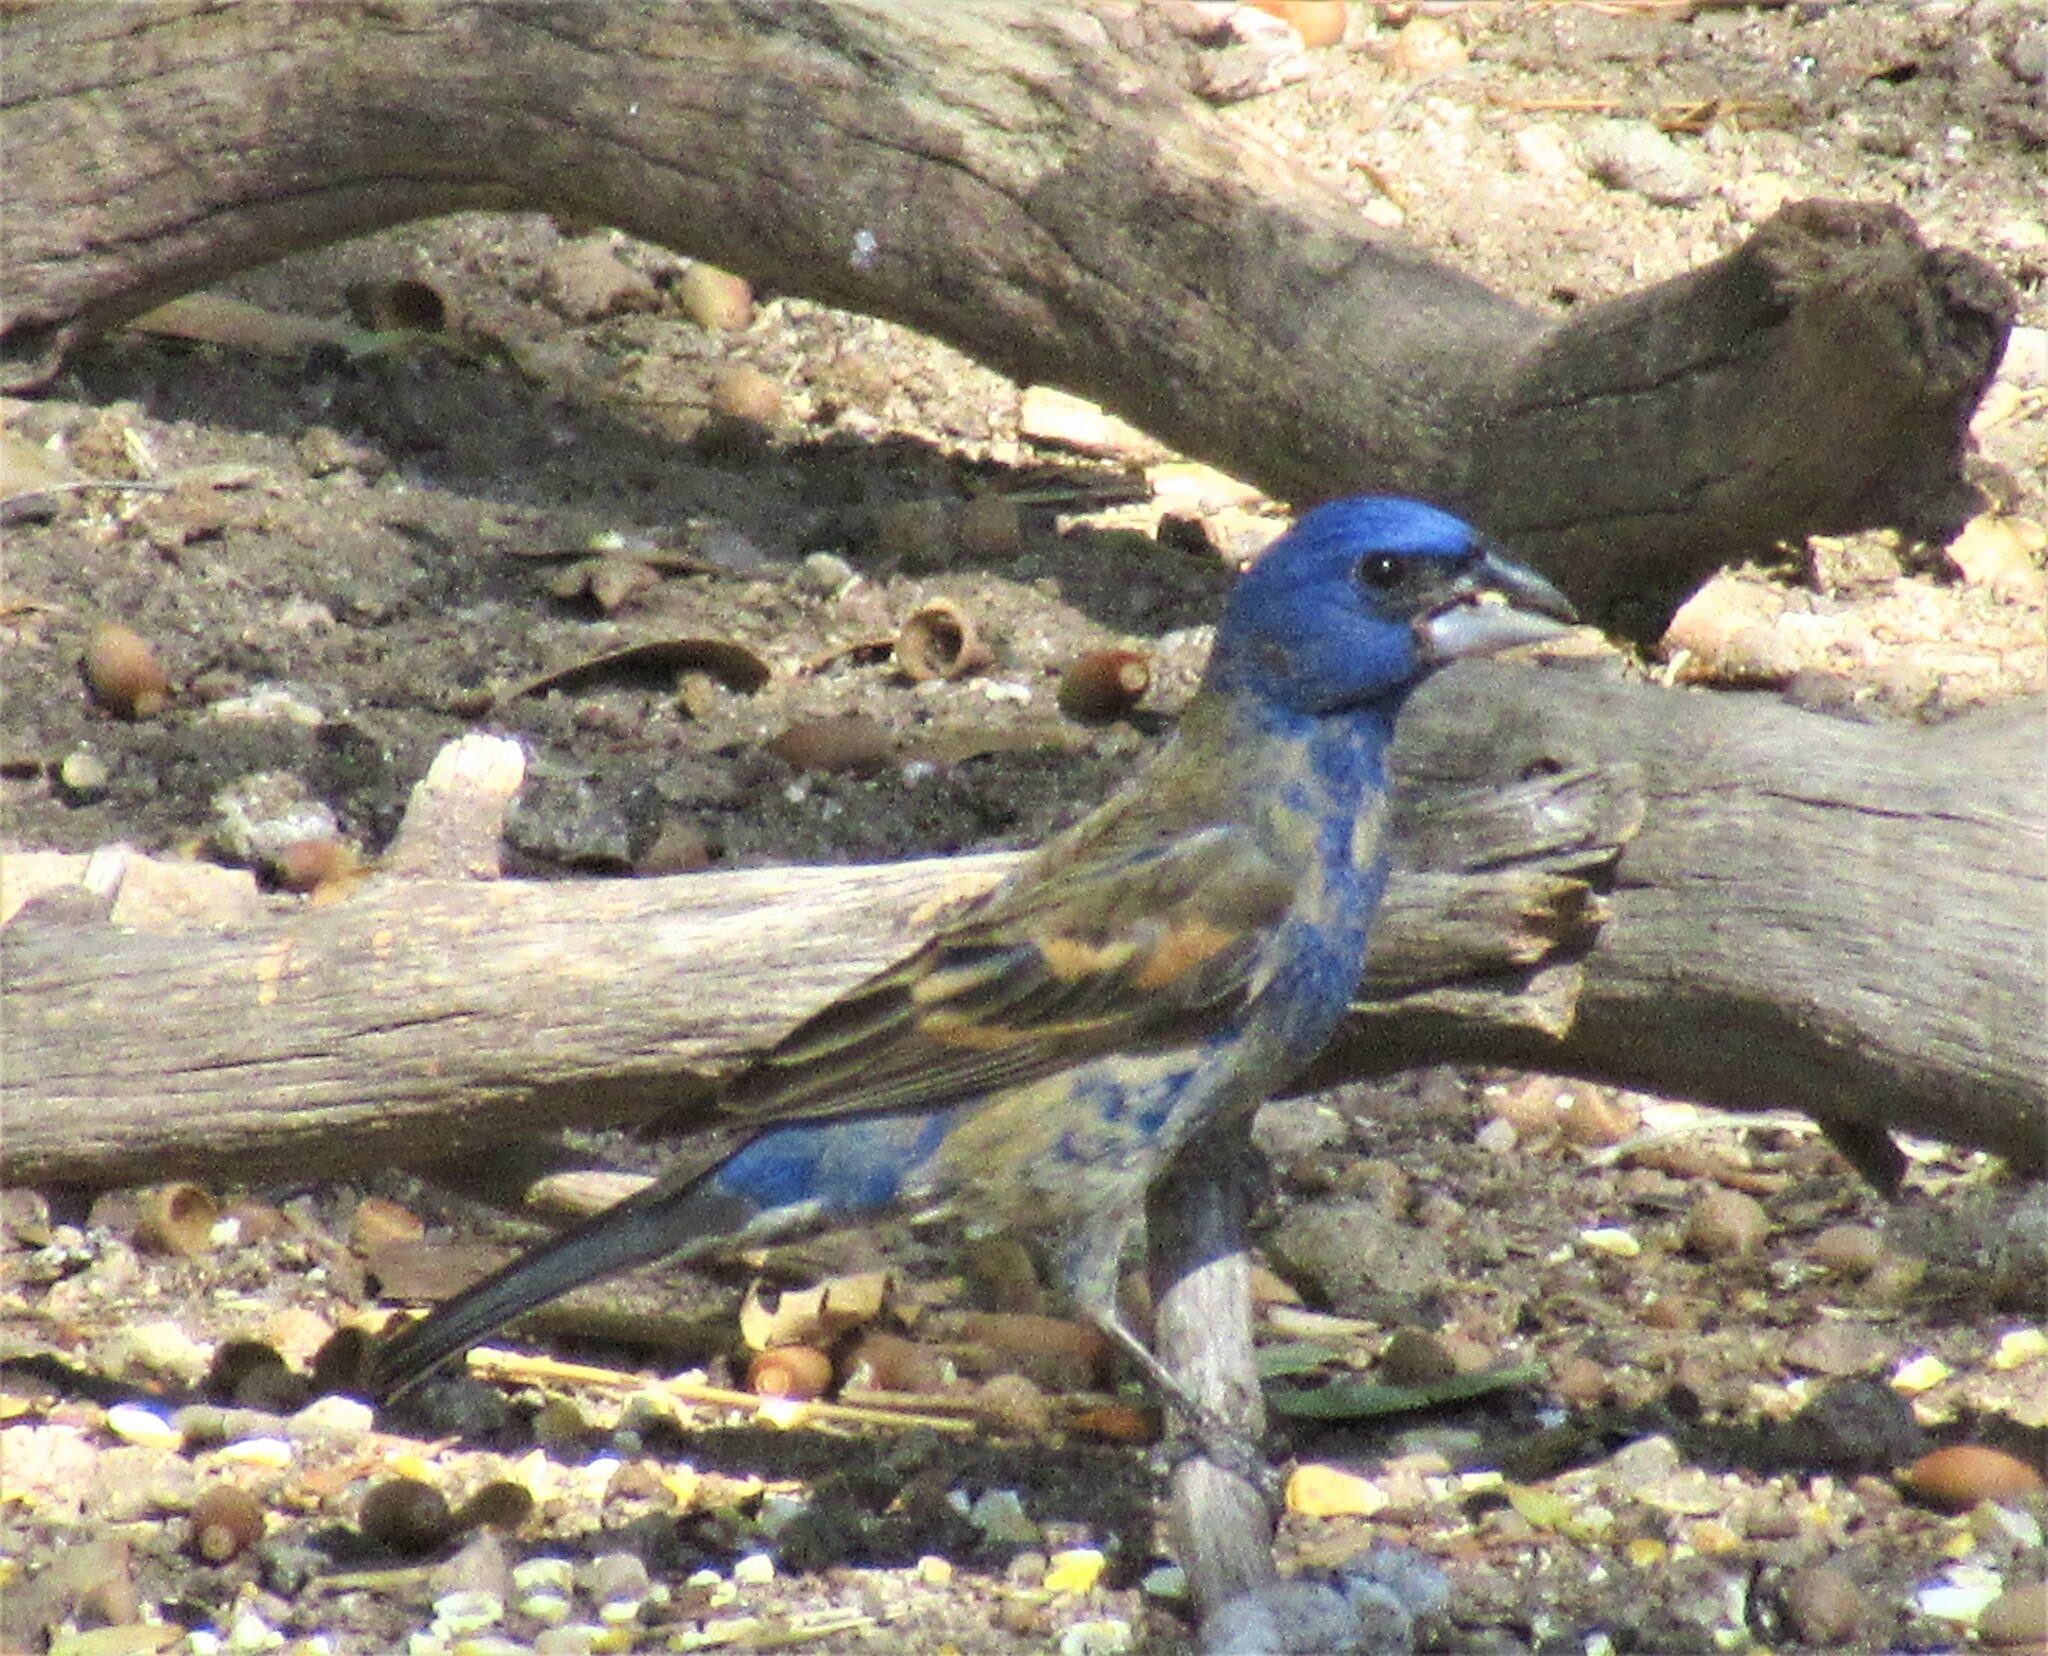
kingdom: Animalia
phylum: Chordata
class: Aves
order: Passeriformes
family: Cardinalidae
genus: Passerina
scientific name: Passerina caerulea
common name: Blue grosbeak
